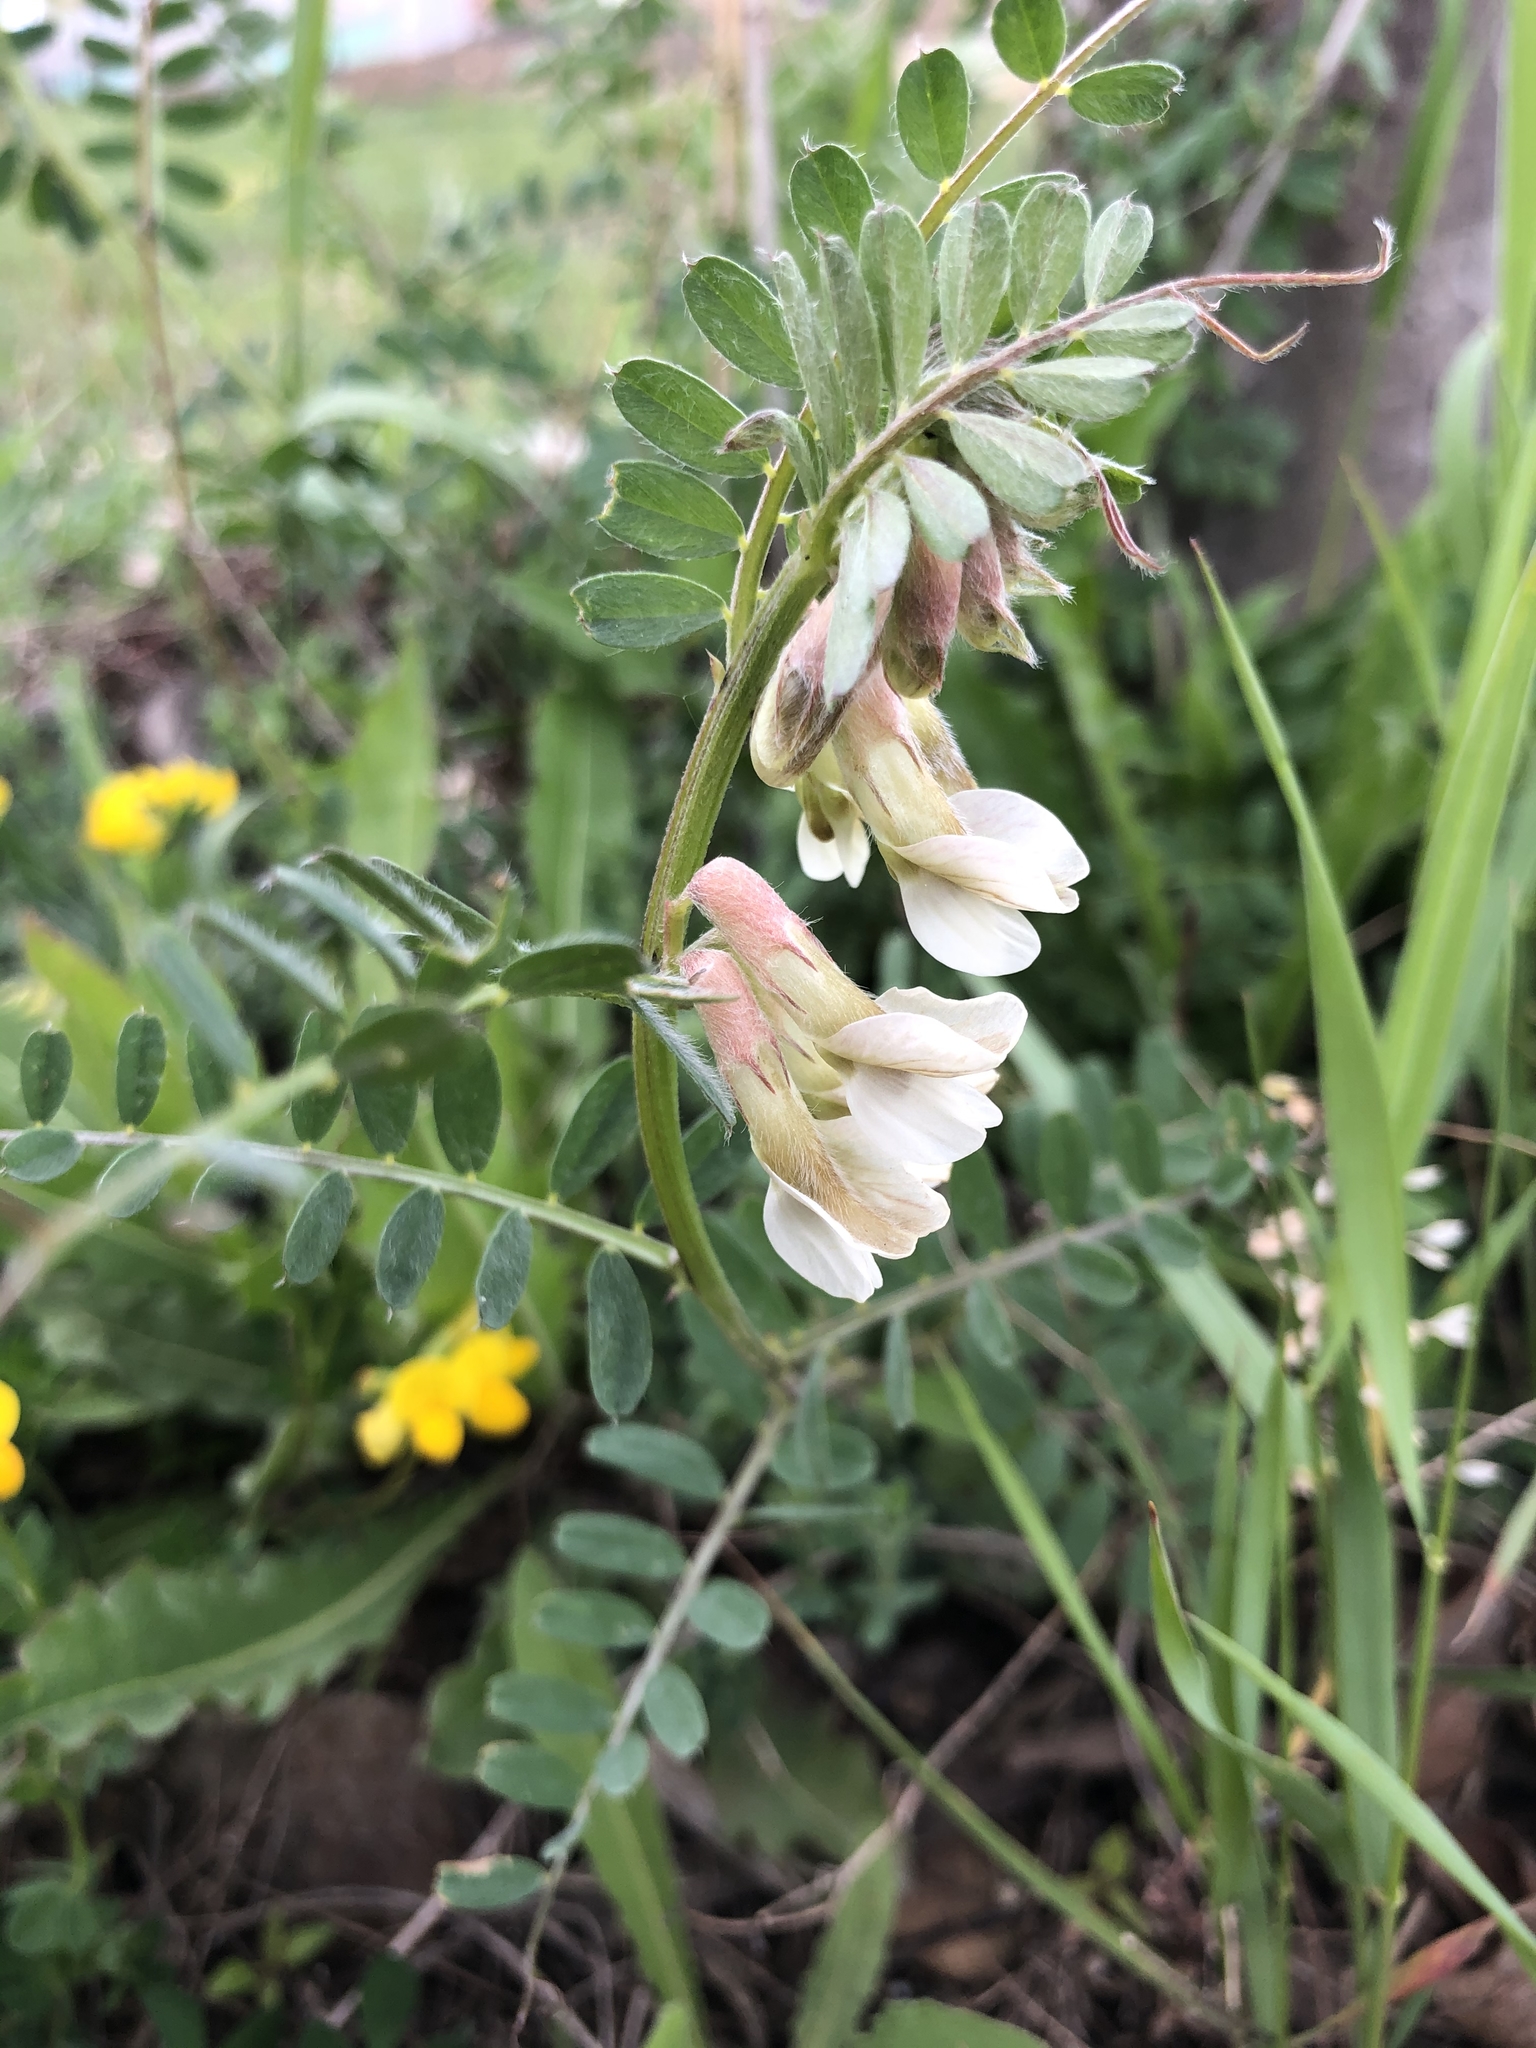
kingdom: Plantae
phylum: Tracheophyta
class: Magnoliopsida
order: Fabales
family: Fabaceae
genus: Vicia
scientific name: Vicia pannonica
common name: Hungarian vetch
